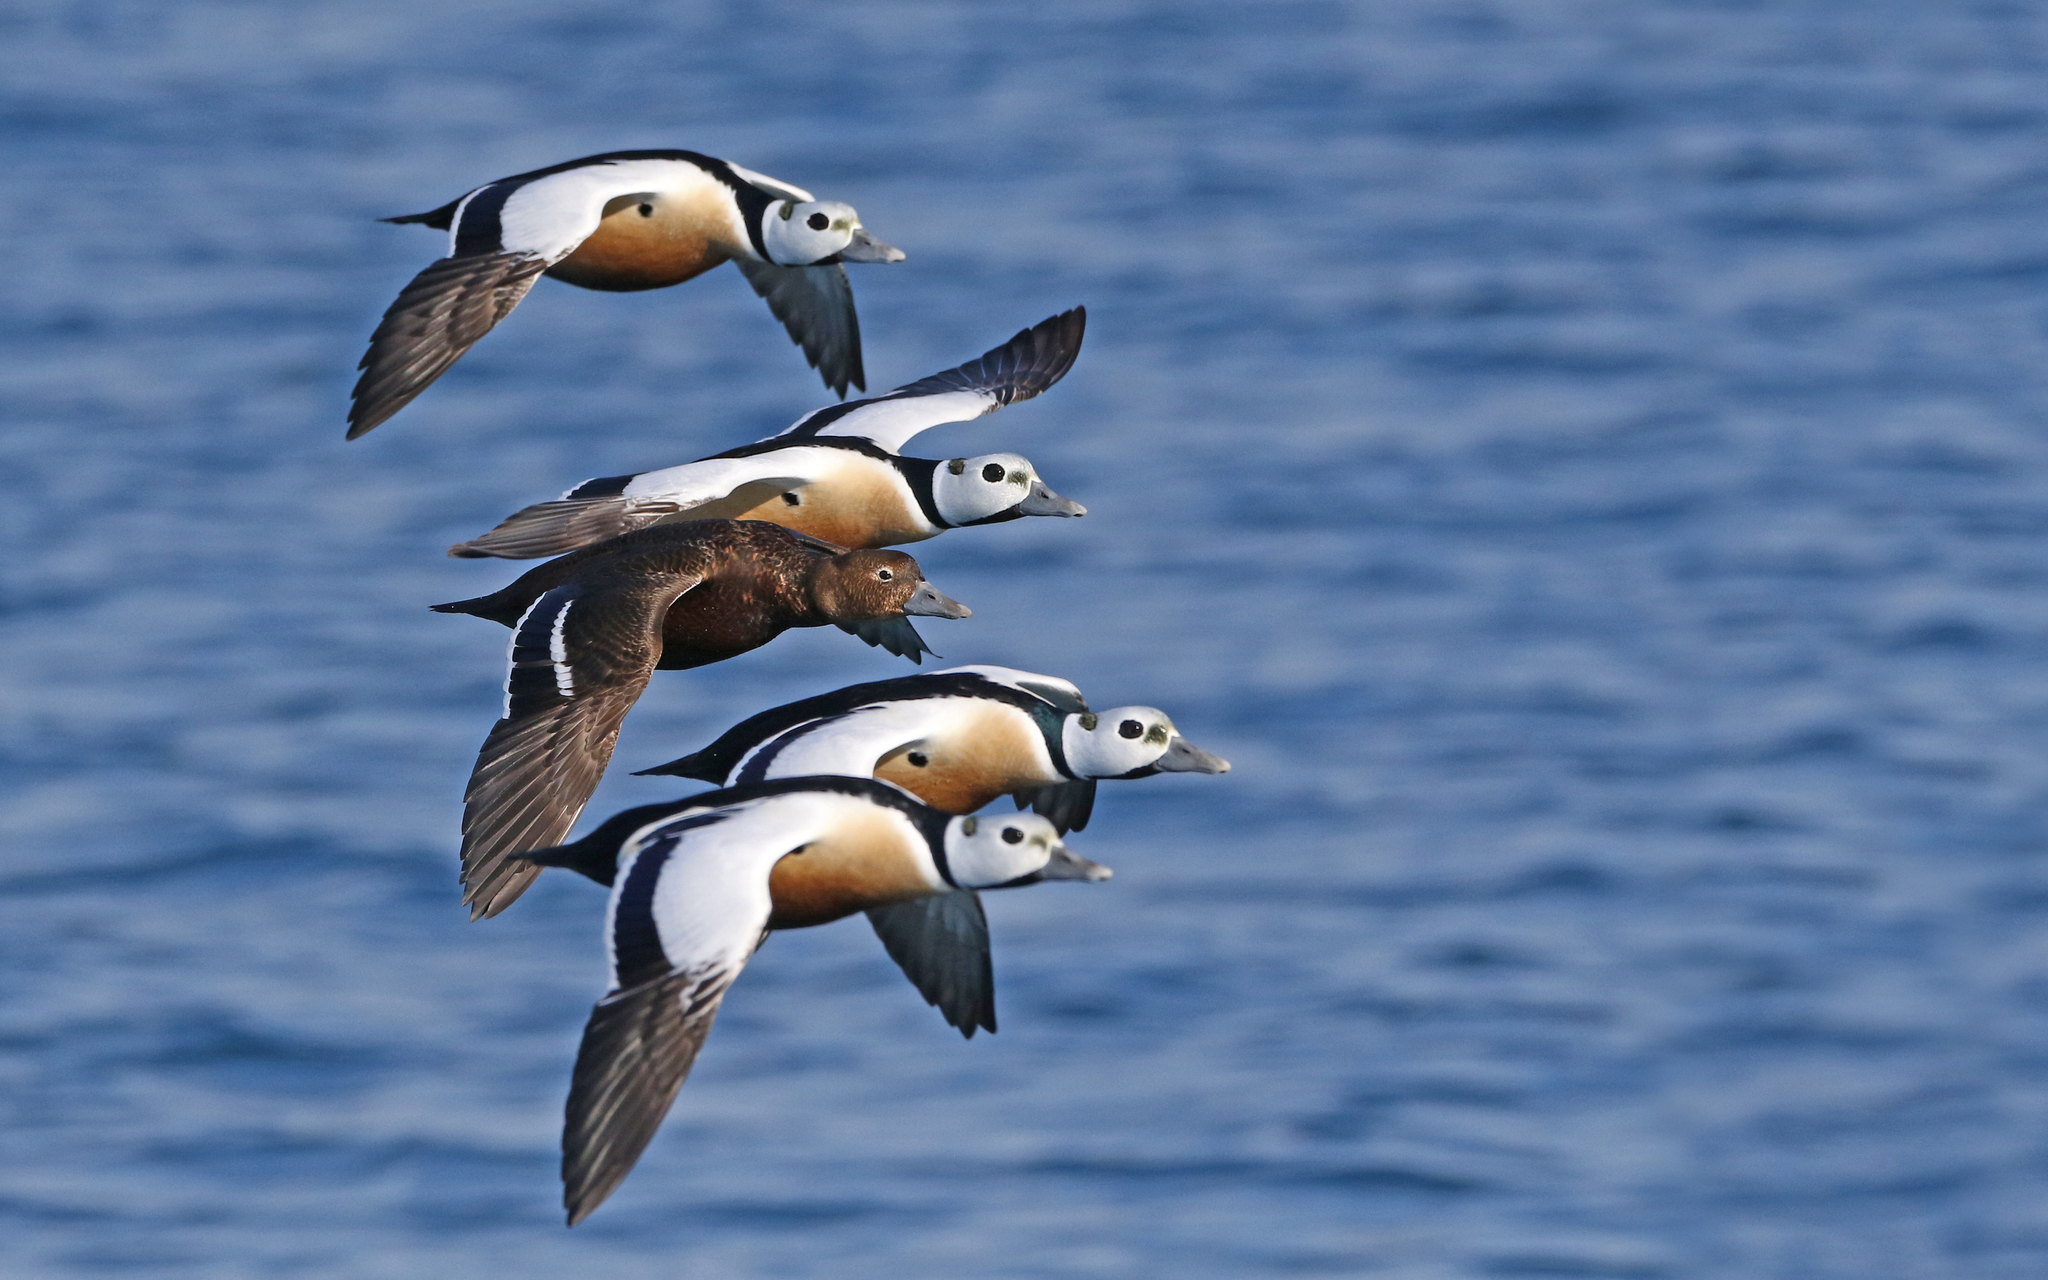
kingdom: Animalia
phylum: Chordata
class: Aves
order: Anseriformes
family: Anatidae
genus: Polysticta
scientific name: Polysticta stelleri
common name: Steller's eider
